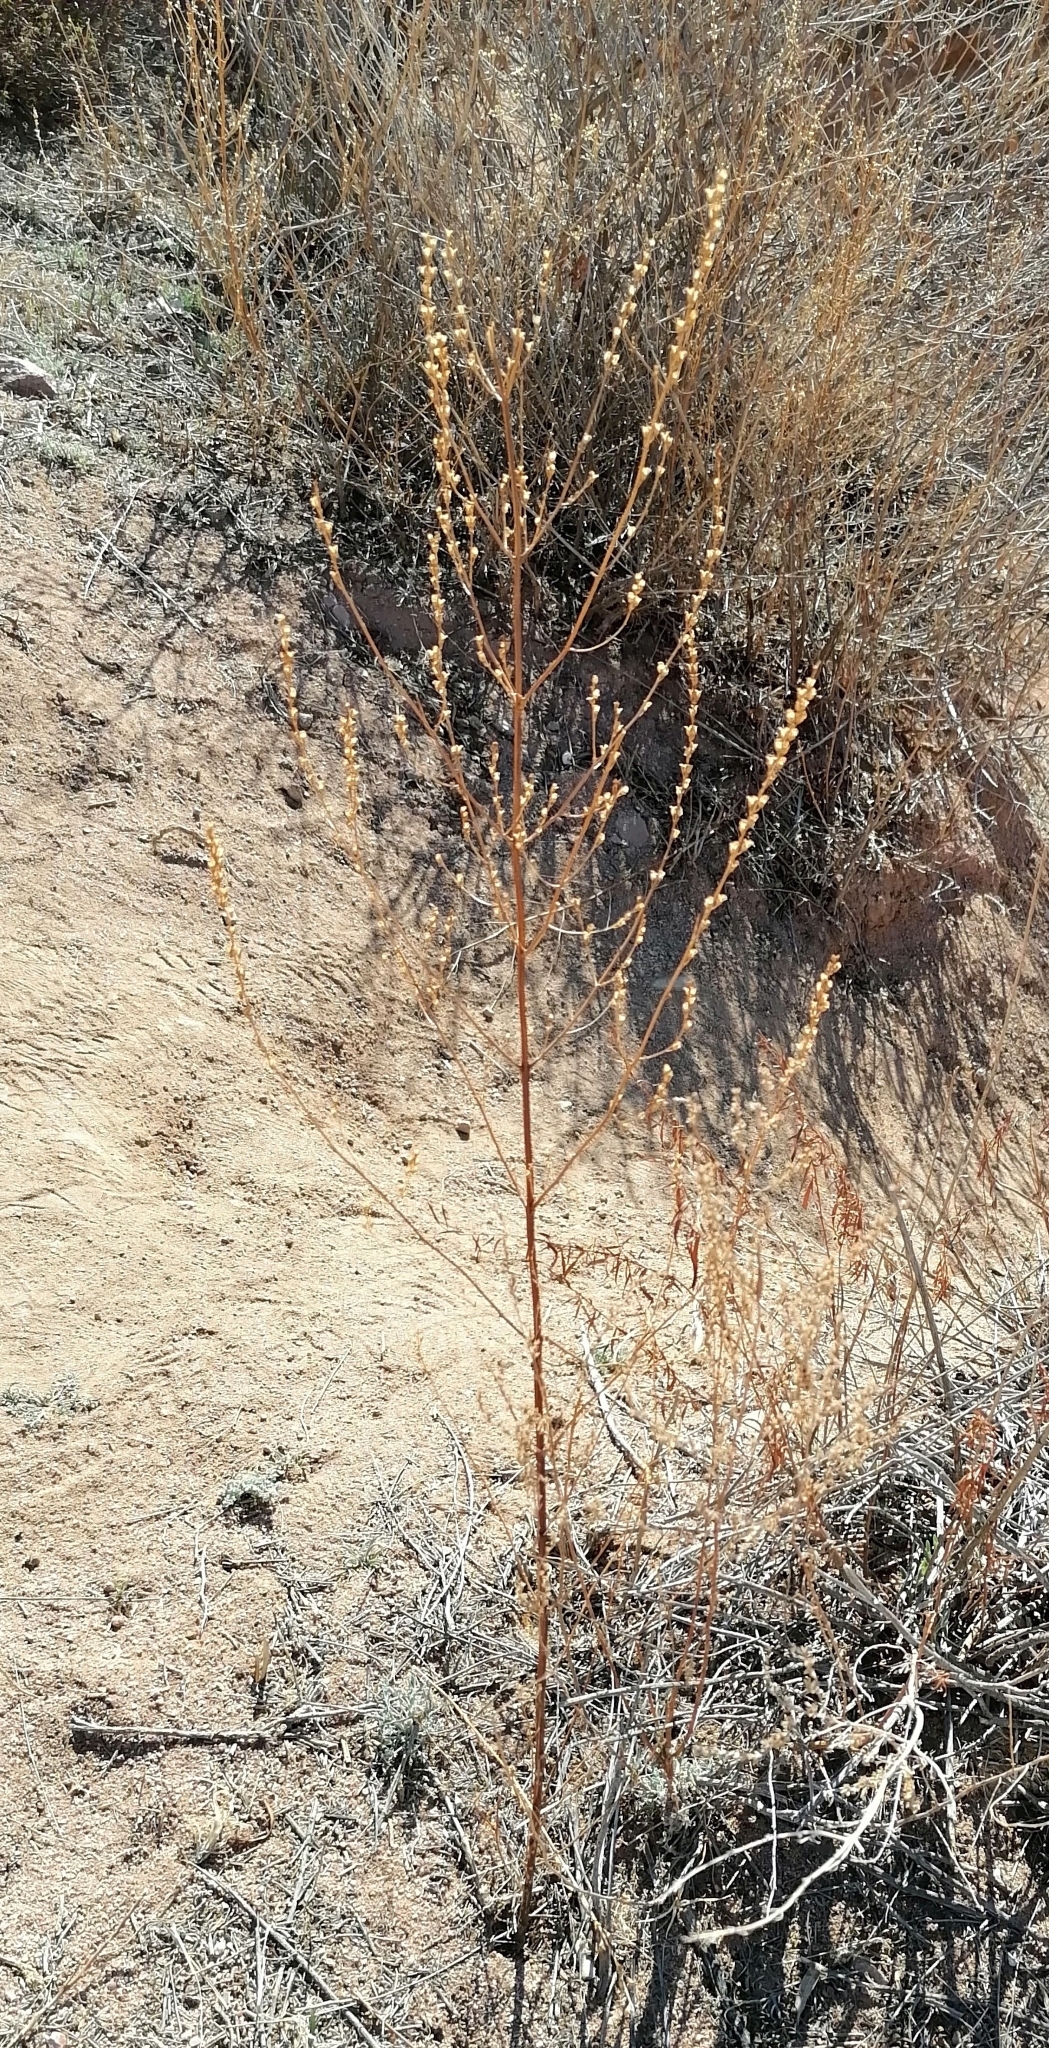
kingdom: Plantae
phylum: Tracheophyta
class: Magnoliopsida
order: Lamiales
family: Verbenaceae
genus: Verbena
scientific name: Verbena officinalis
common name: Vervain
